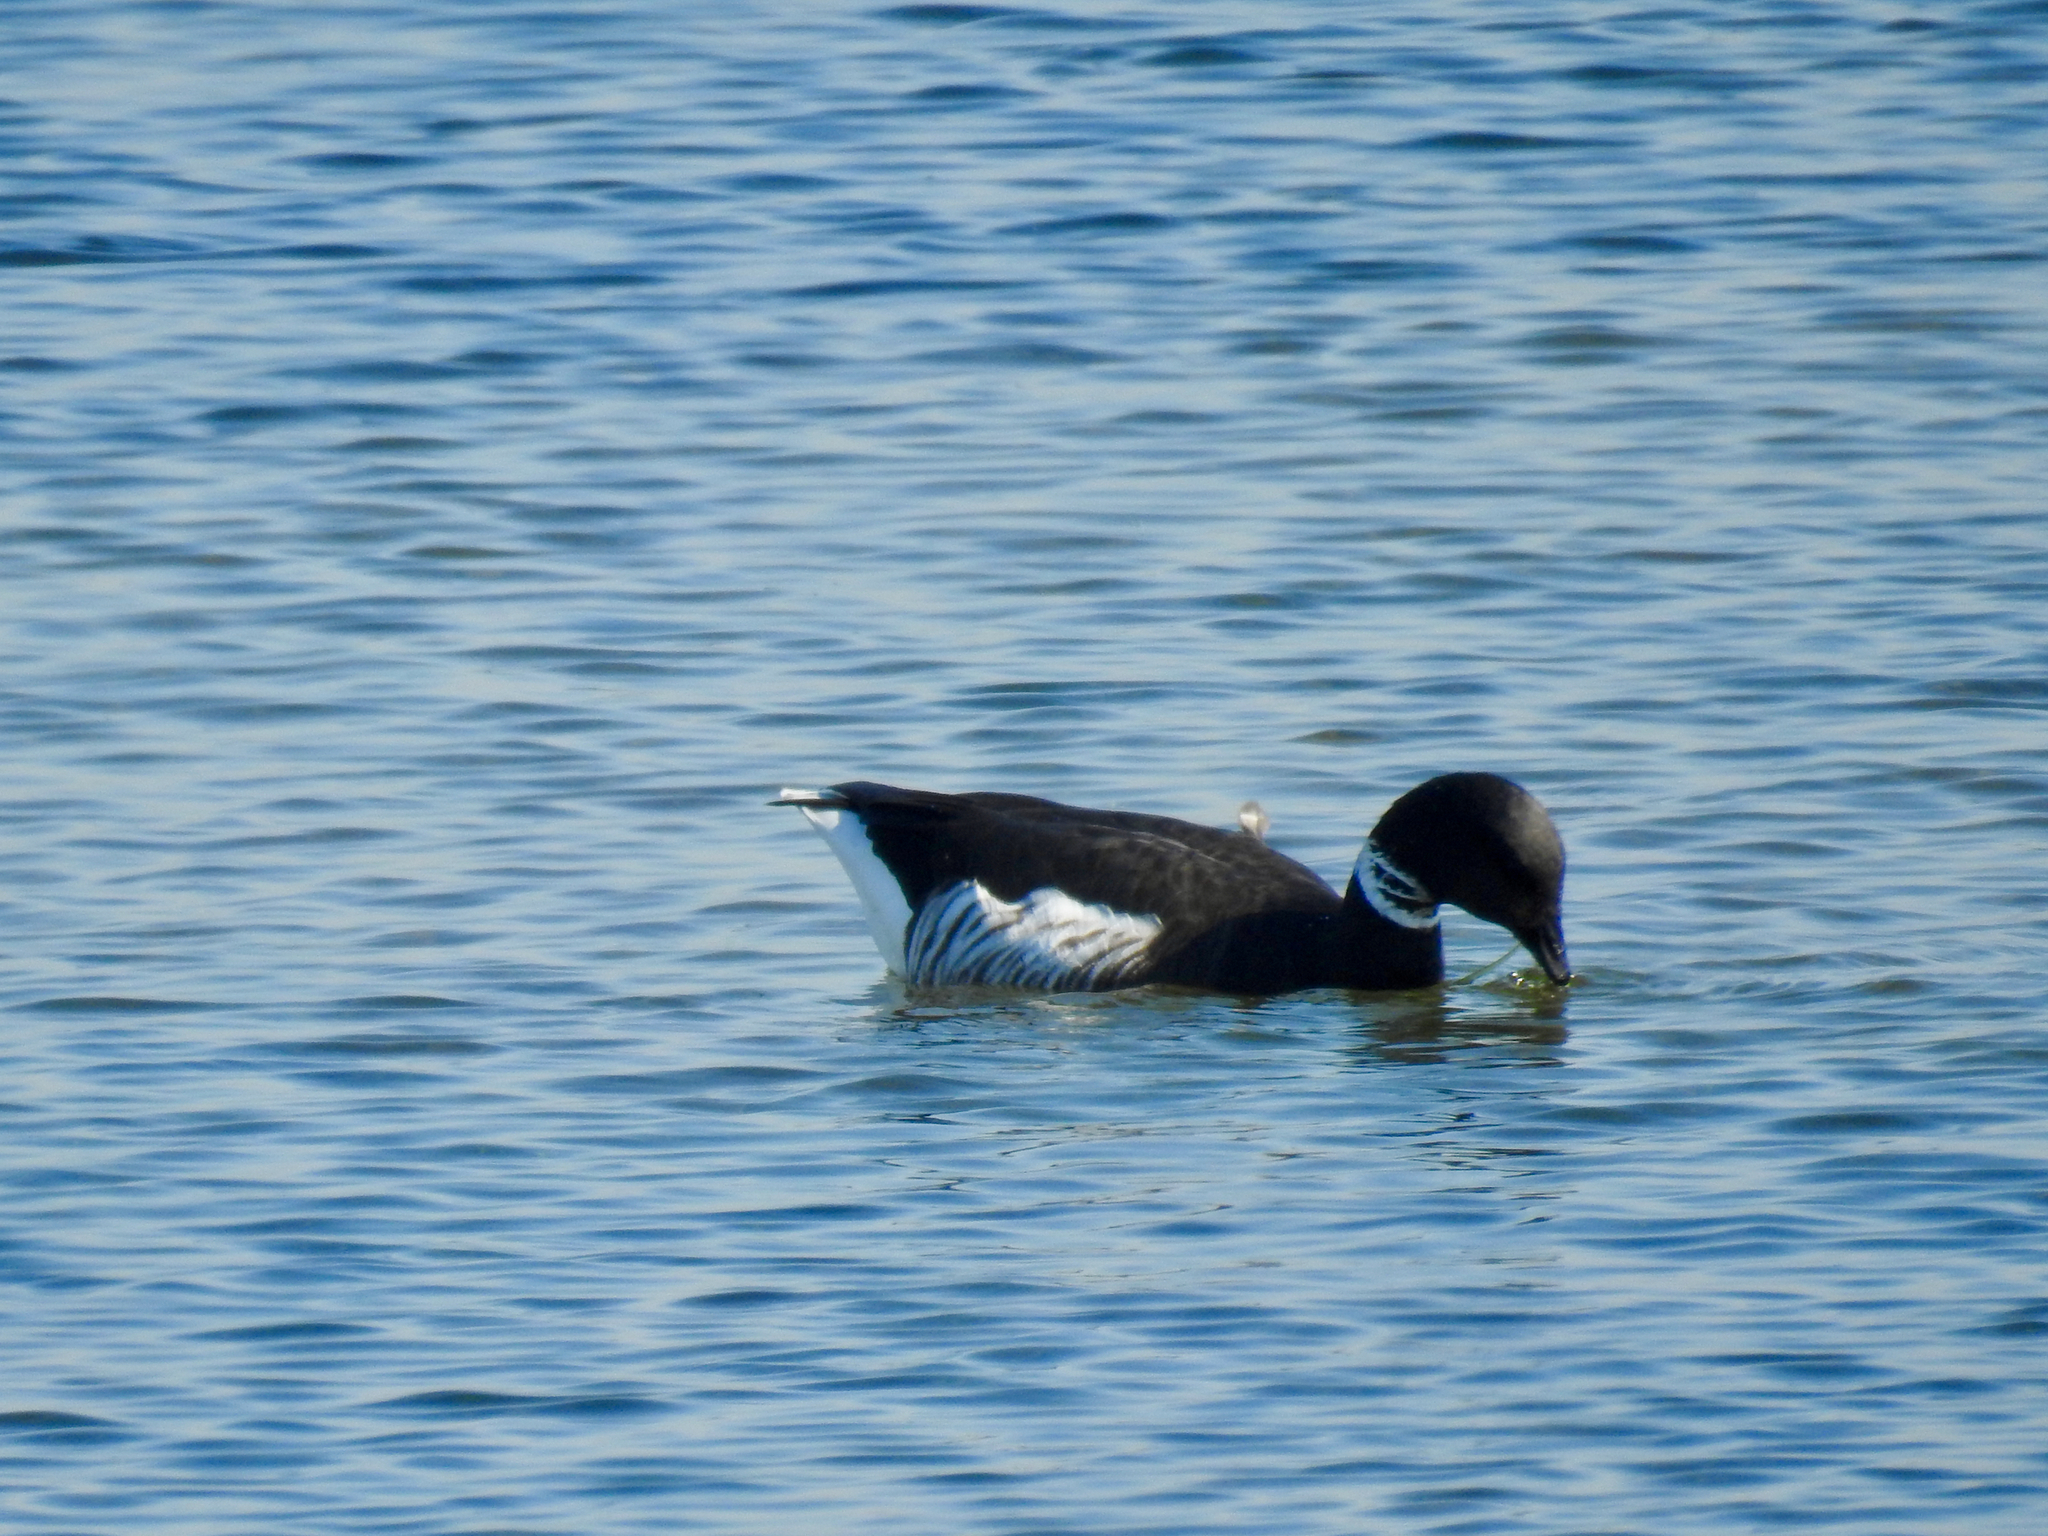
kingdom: Animalia
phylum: Chordata
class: Aves
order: Anseriformes
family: Anatidae
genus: Branta
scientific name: Branta bernicla
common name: Brant goose
